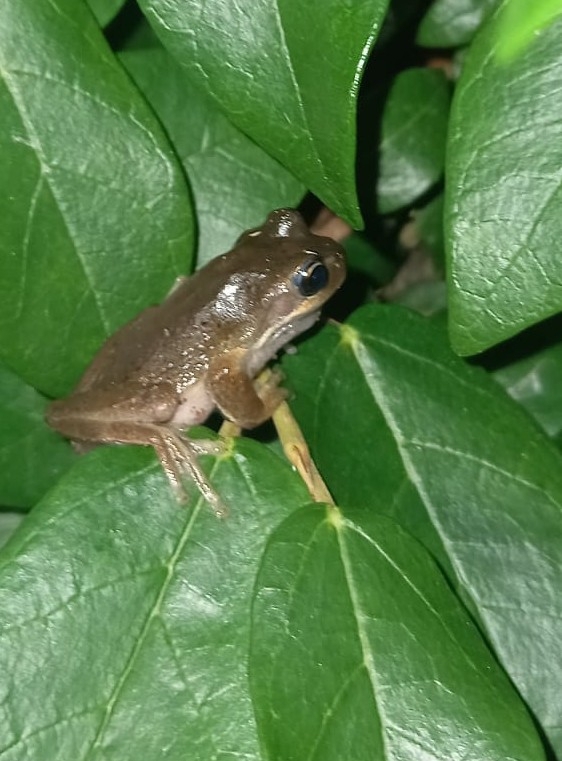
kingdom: Animalia
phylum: Chordata
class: Amphibia
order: Anura
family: Pelodryadidae
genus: Litoria
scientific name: Litoria ewingii
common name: Southern brown tree frog
